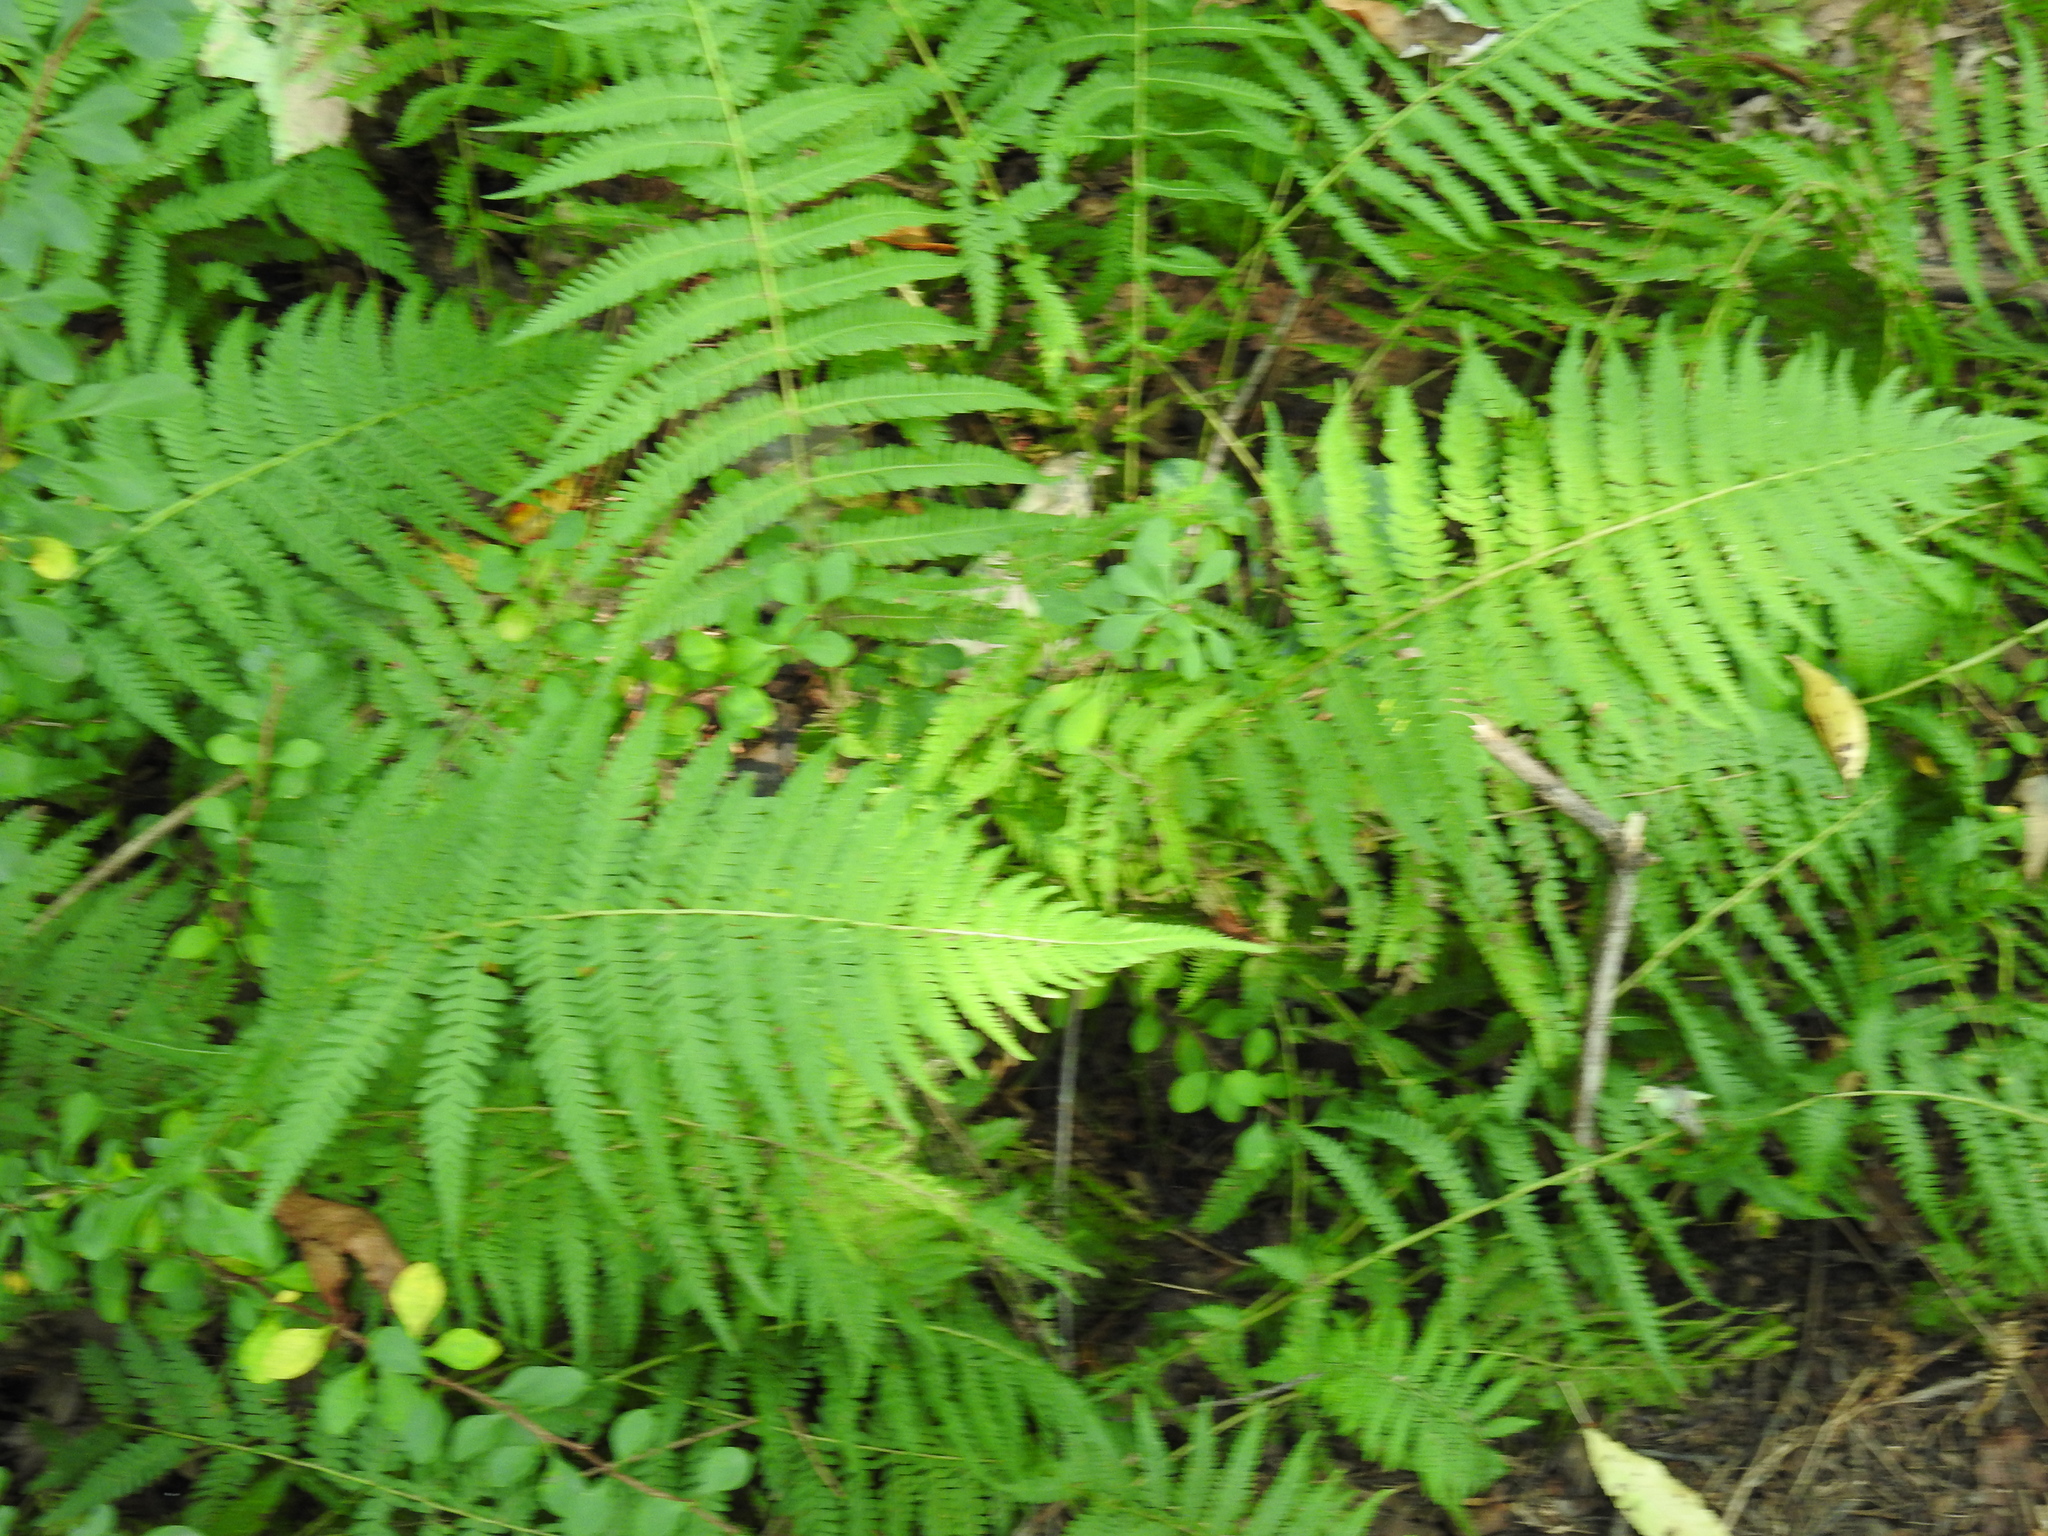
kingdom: Plantae
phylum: Tracheophyta
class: Polypodiopsida
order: Polypodiales
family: Thelypteridaceae
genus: Amauropelta
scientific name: Amauropelta noveboracensis
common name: New york fern
